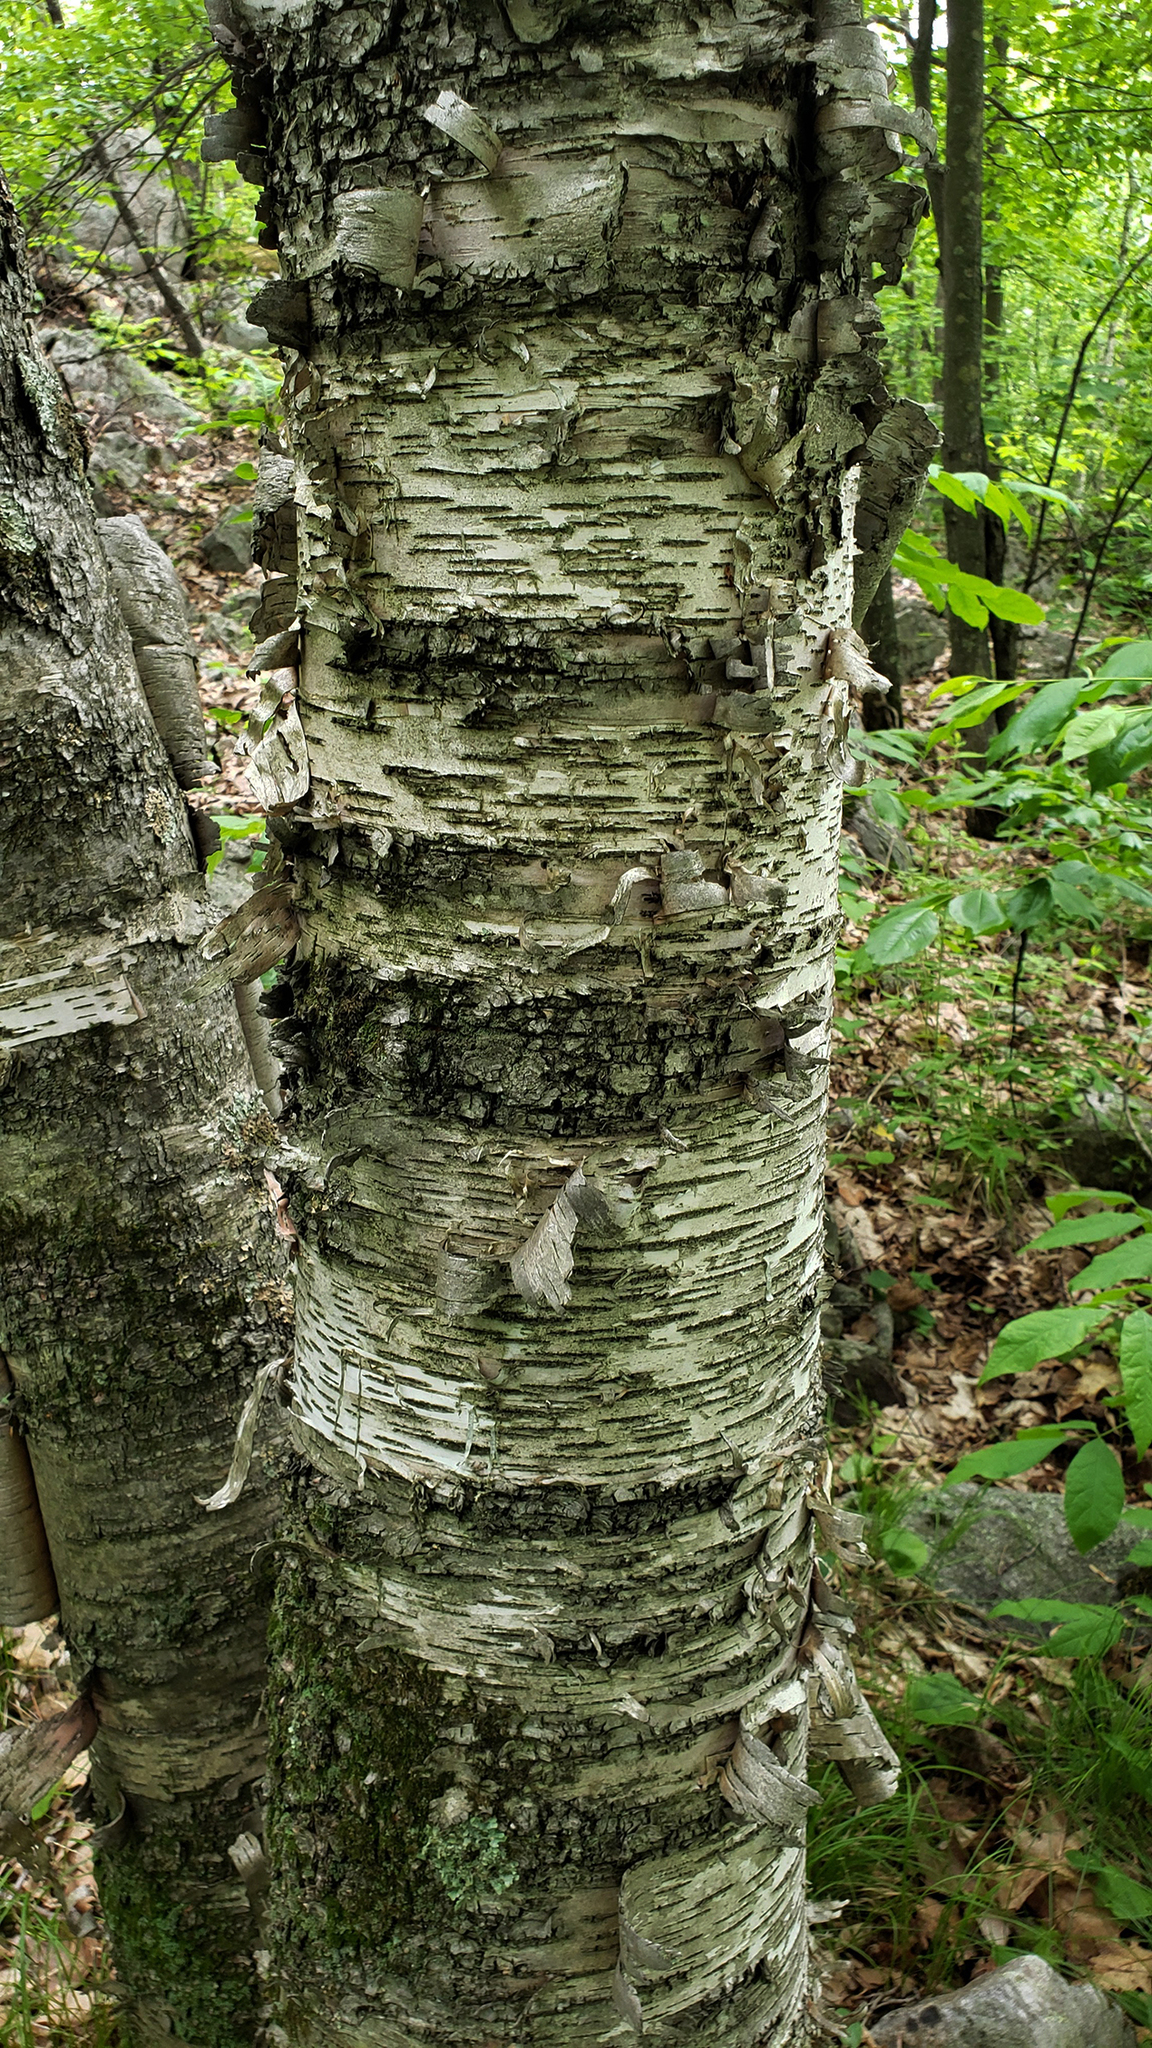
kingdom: Plantae
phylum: Tracheophyta
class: Magnoliopsida
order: Fagales
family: Betulaceae
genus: Betula
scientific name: Betula papyrifera
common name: Paper birch
